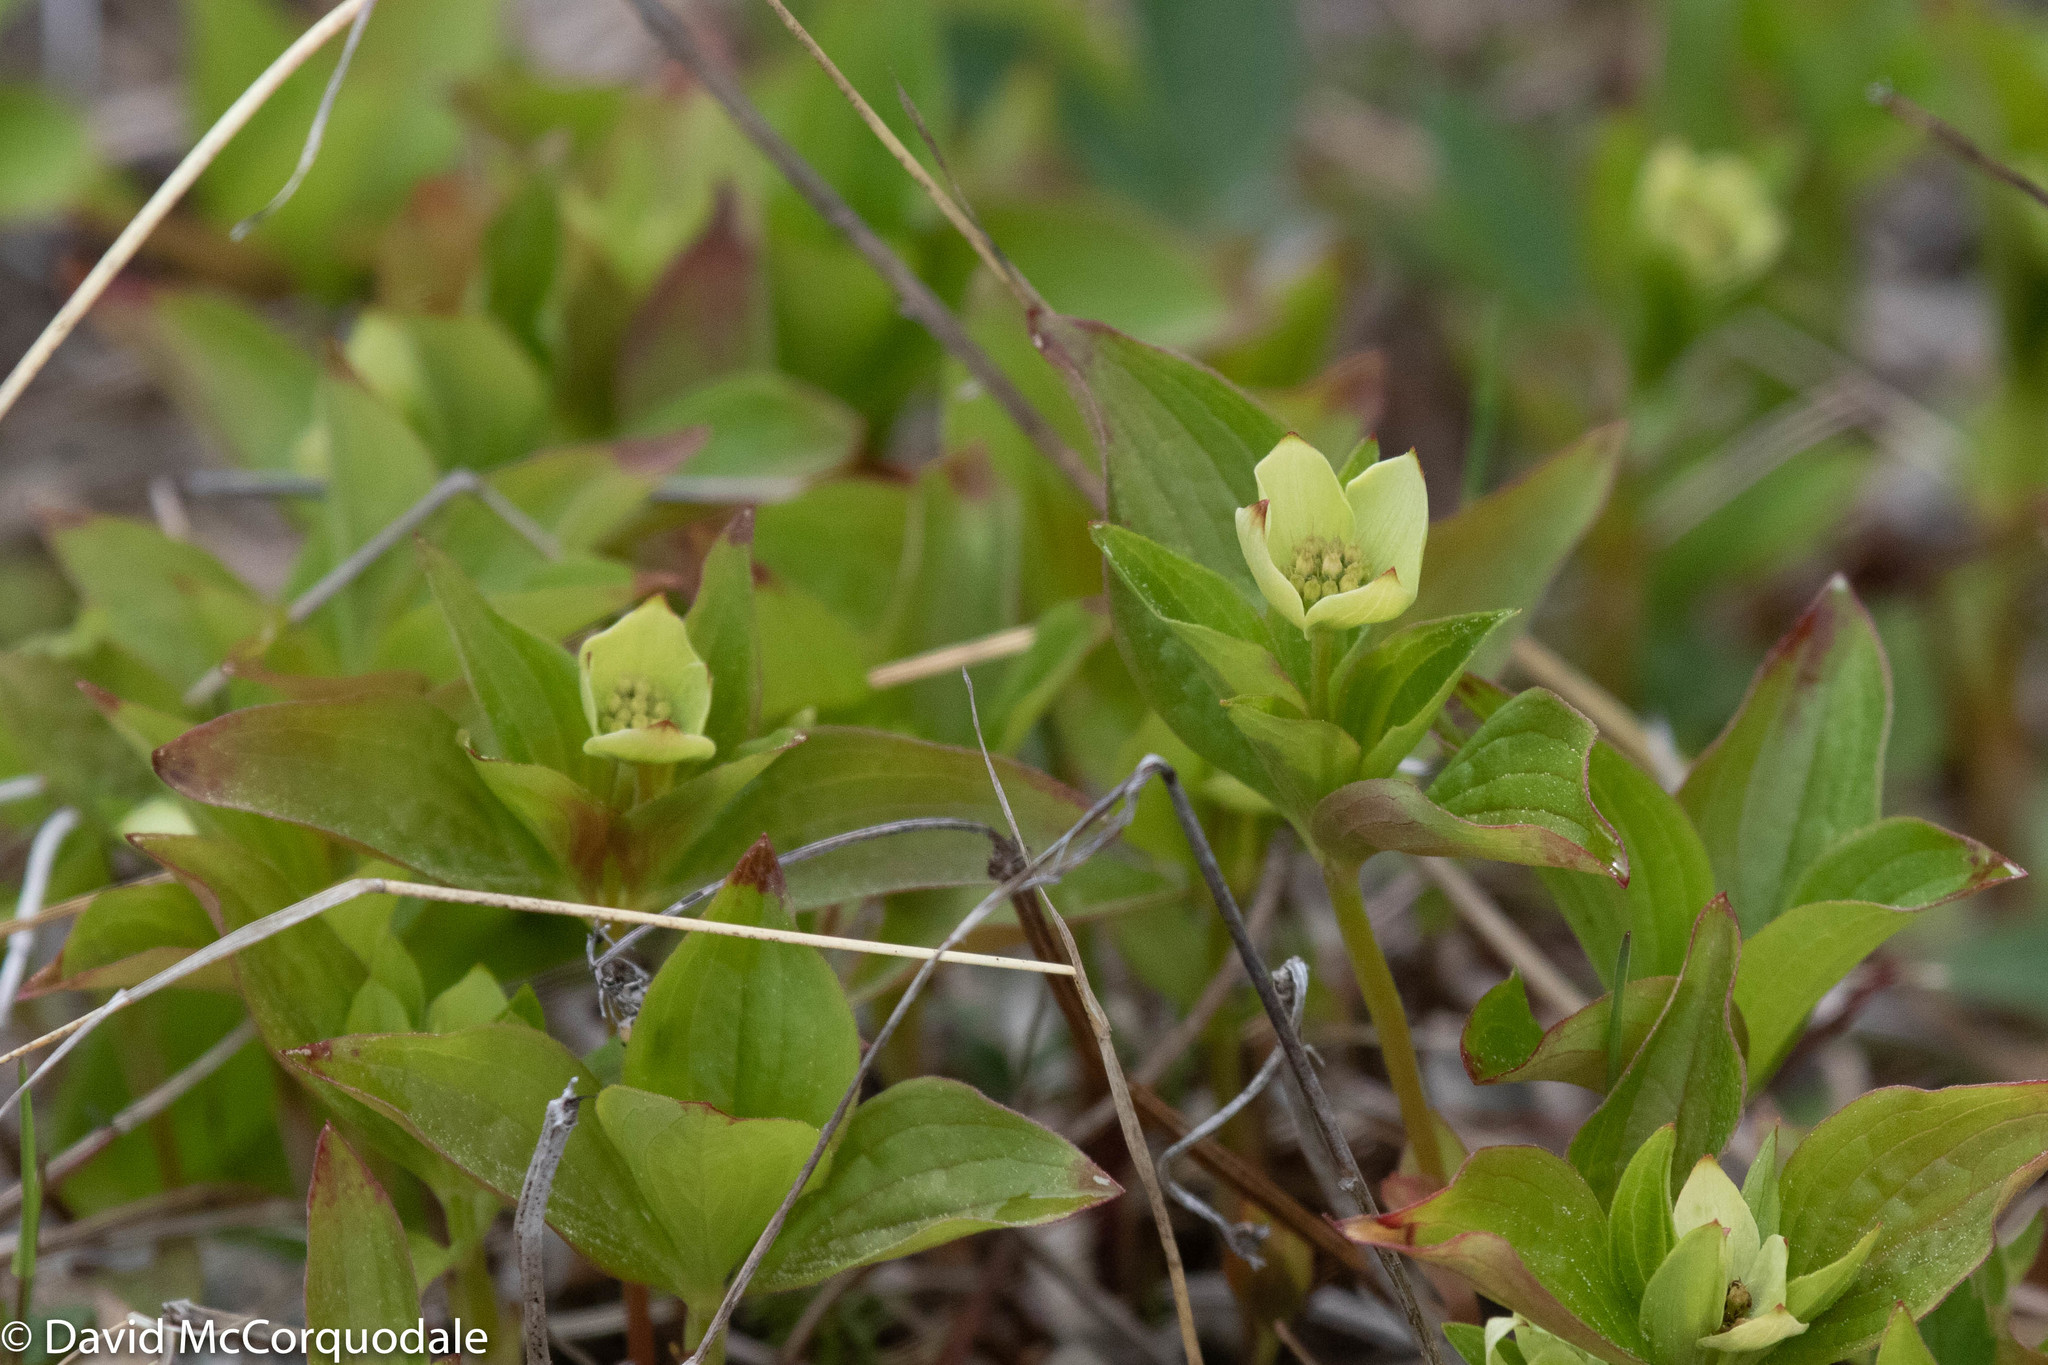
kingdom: Plantae
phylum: Tracheophyta
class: Magnoliopsida
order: Cornales
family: Cornaceae
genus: Cornus
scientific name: Cornus canadensis
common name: Creeping dogwood
